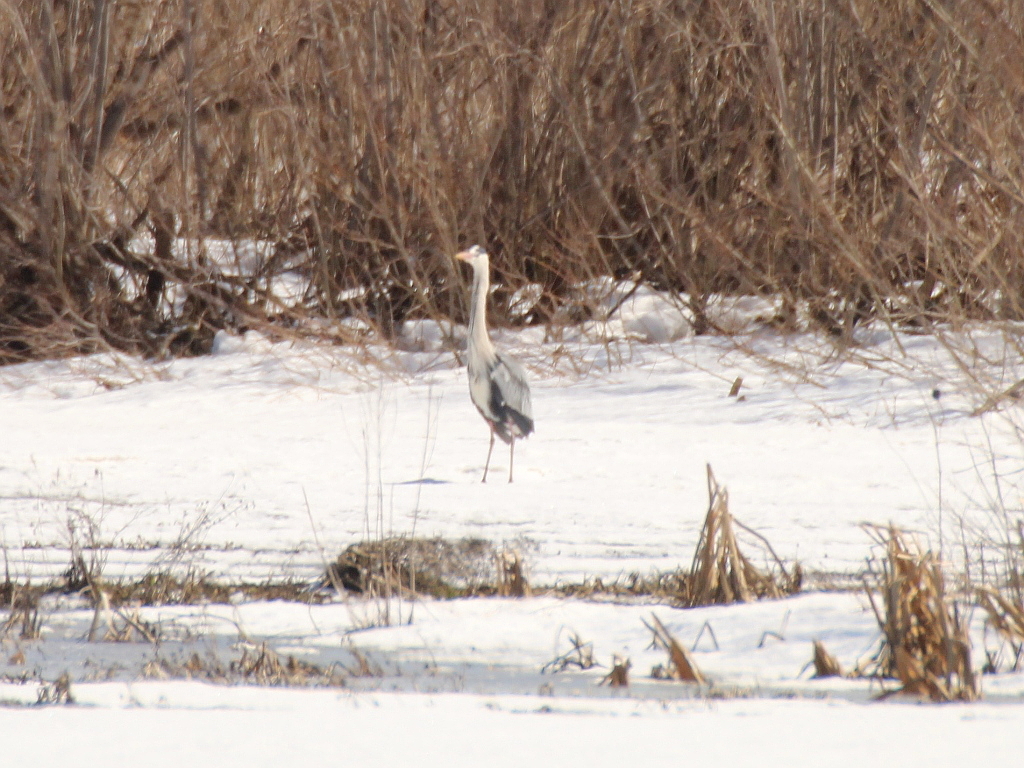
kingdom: Animalia
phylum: Chordata
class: Aves
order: Pelecaniformes
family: Ardeidae
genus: Ardea
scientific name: Ardea cinerea
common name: Grey heron
